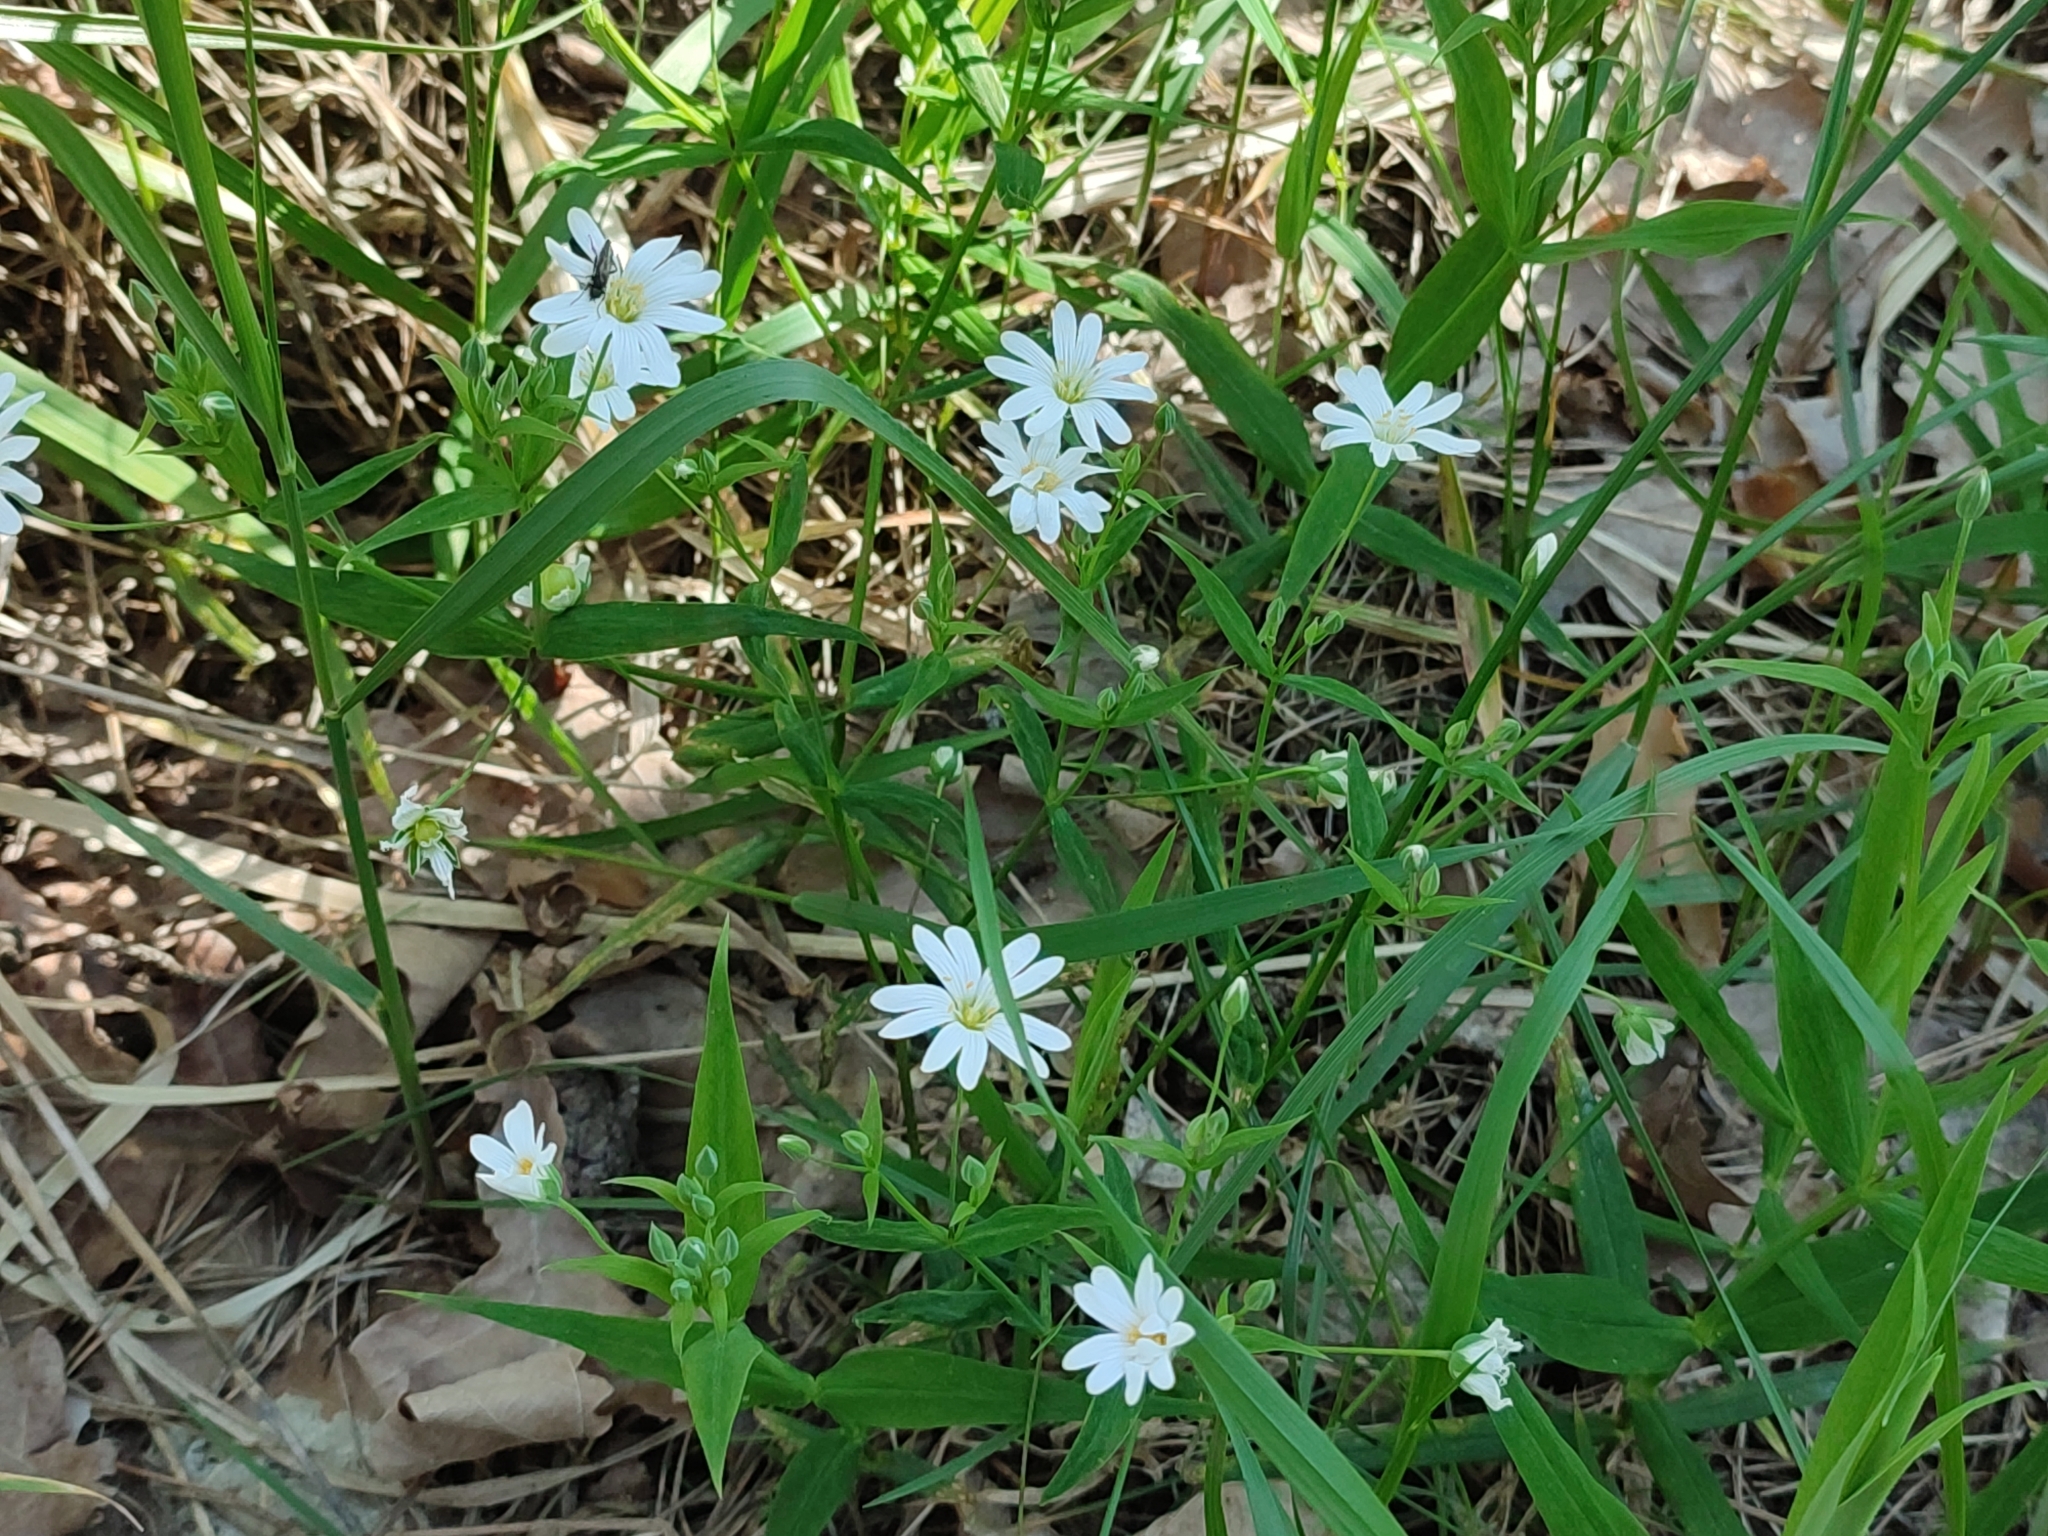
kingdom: Plantae
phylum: Tracheophyta
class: Magnoliopsida
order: Caryophyllales
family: Caryophyllaceae
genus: Rabelera
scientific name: Rabelera holostea
